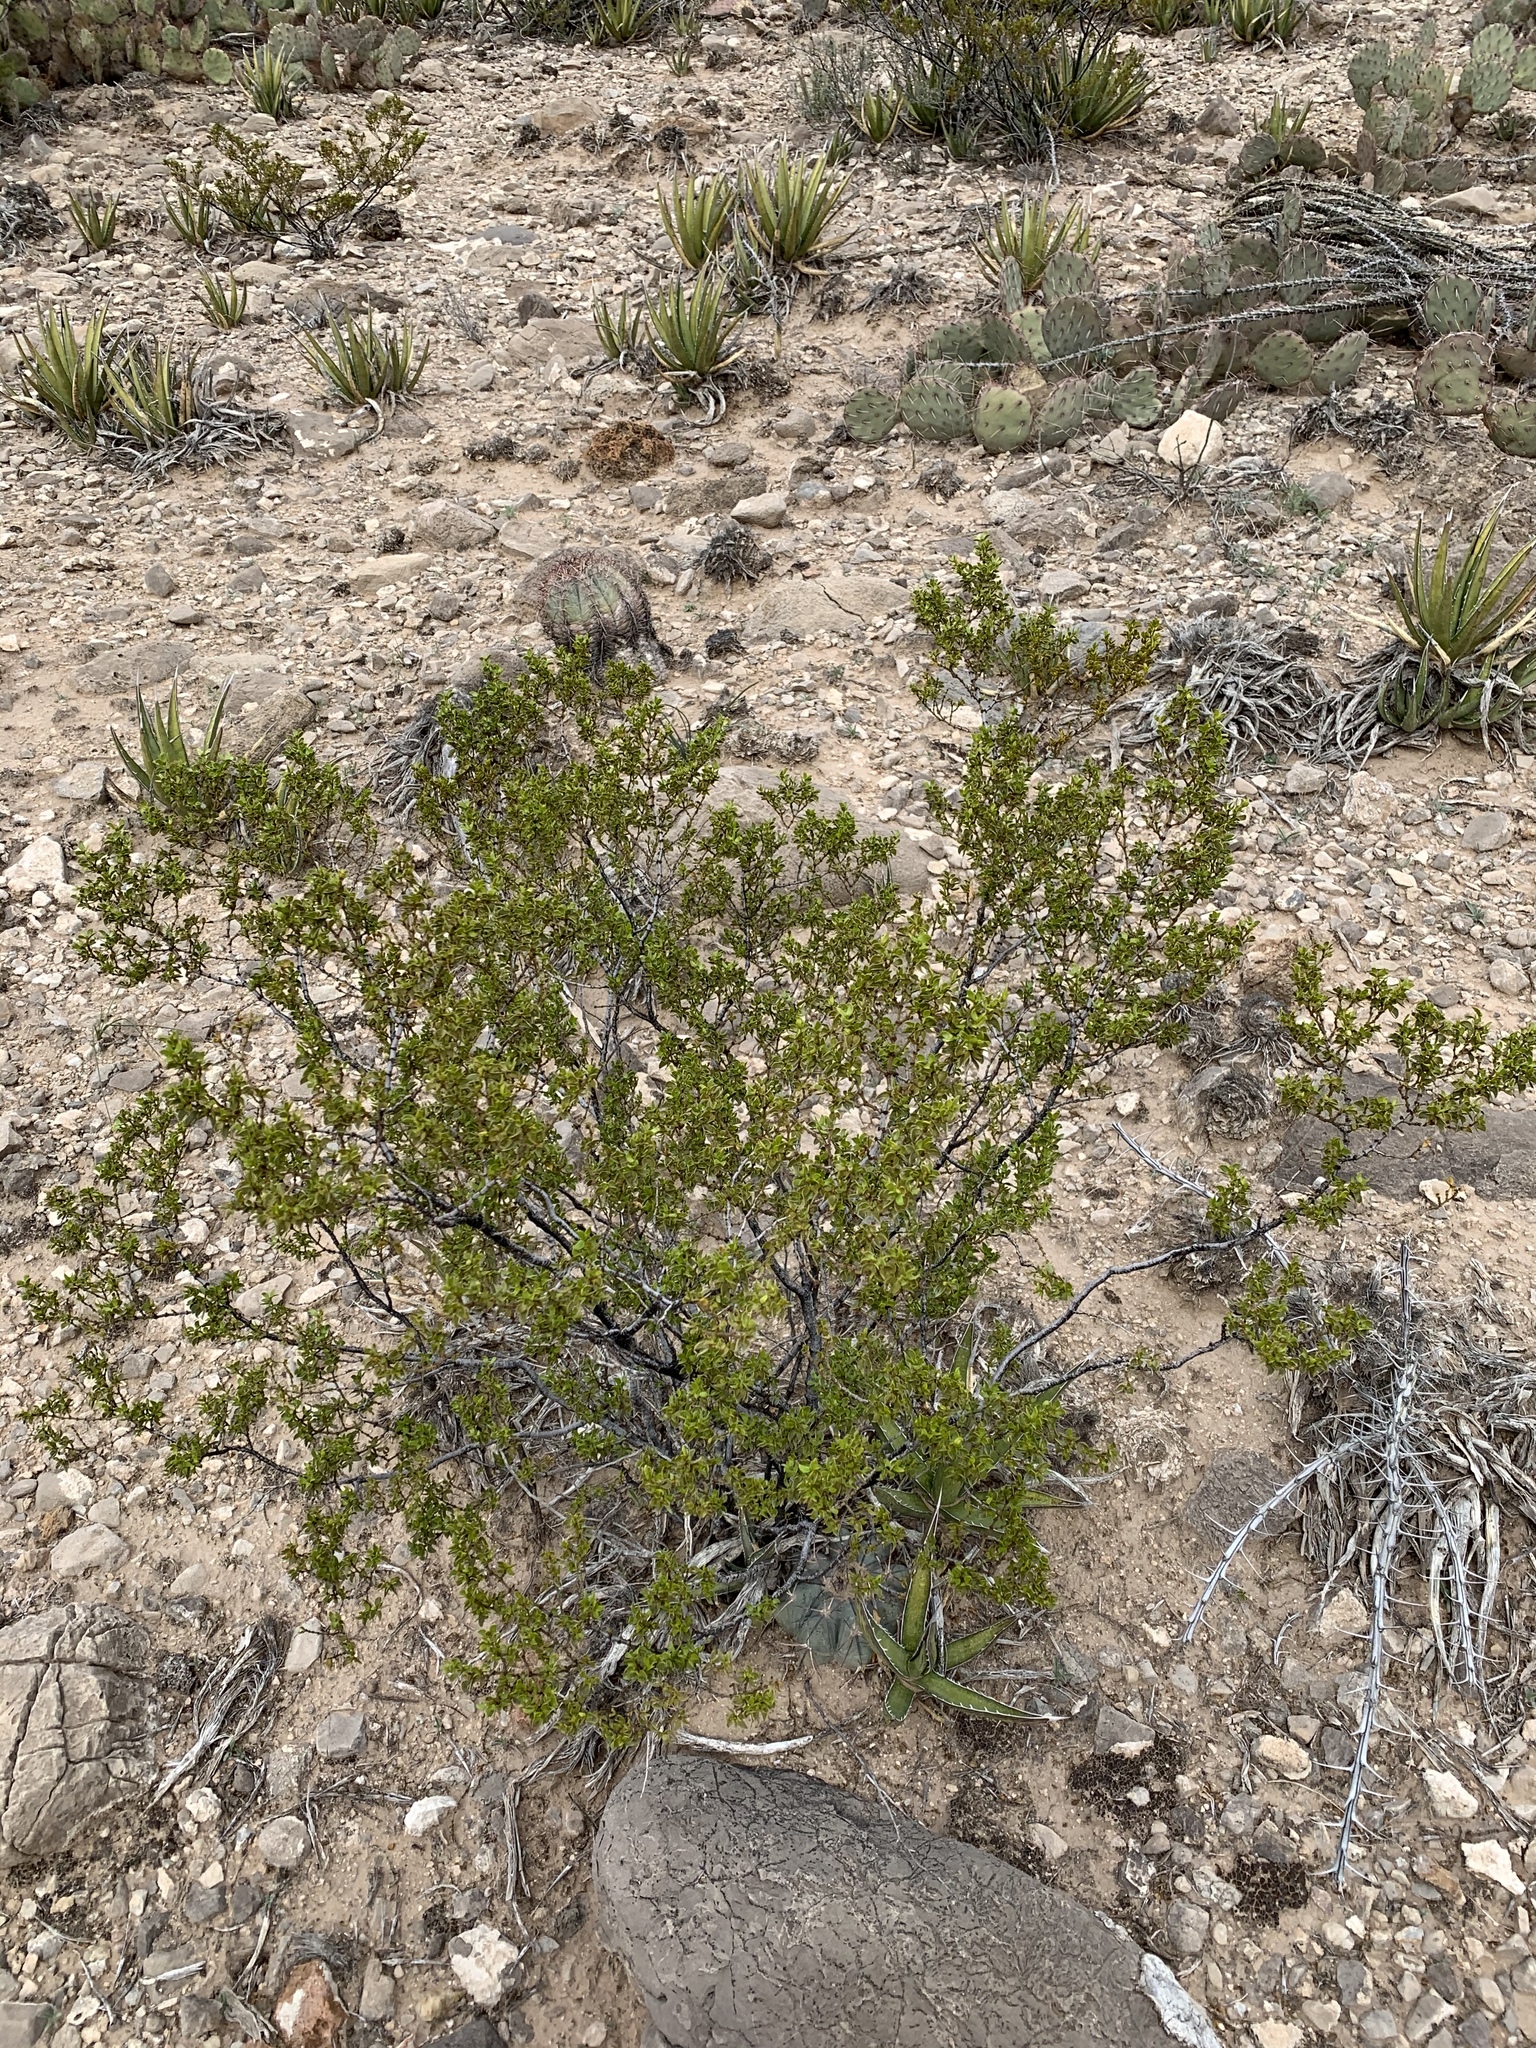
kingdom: Plantae
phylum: Tracheophyta
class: Magnoliopsida
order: Zygophyllales
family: Zygophyllaceae
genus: Larrea
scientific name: Larrea tridentata
